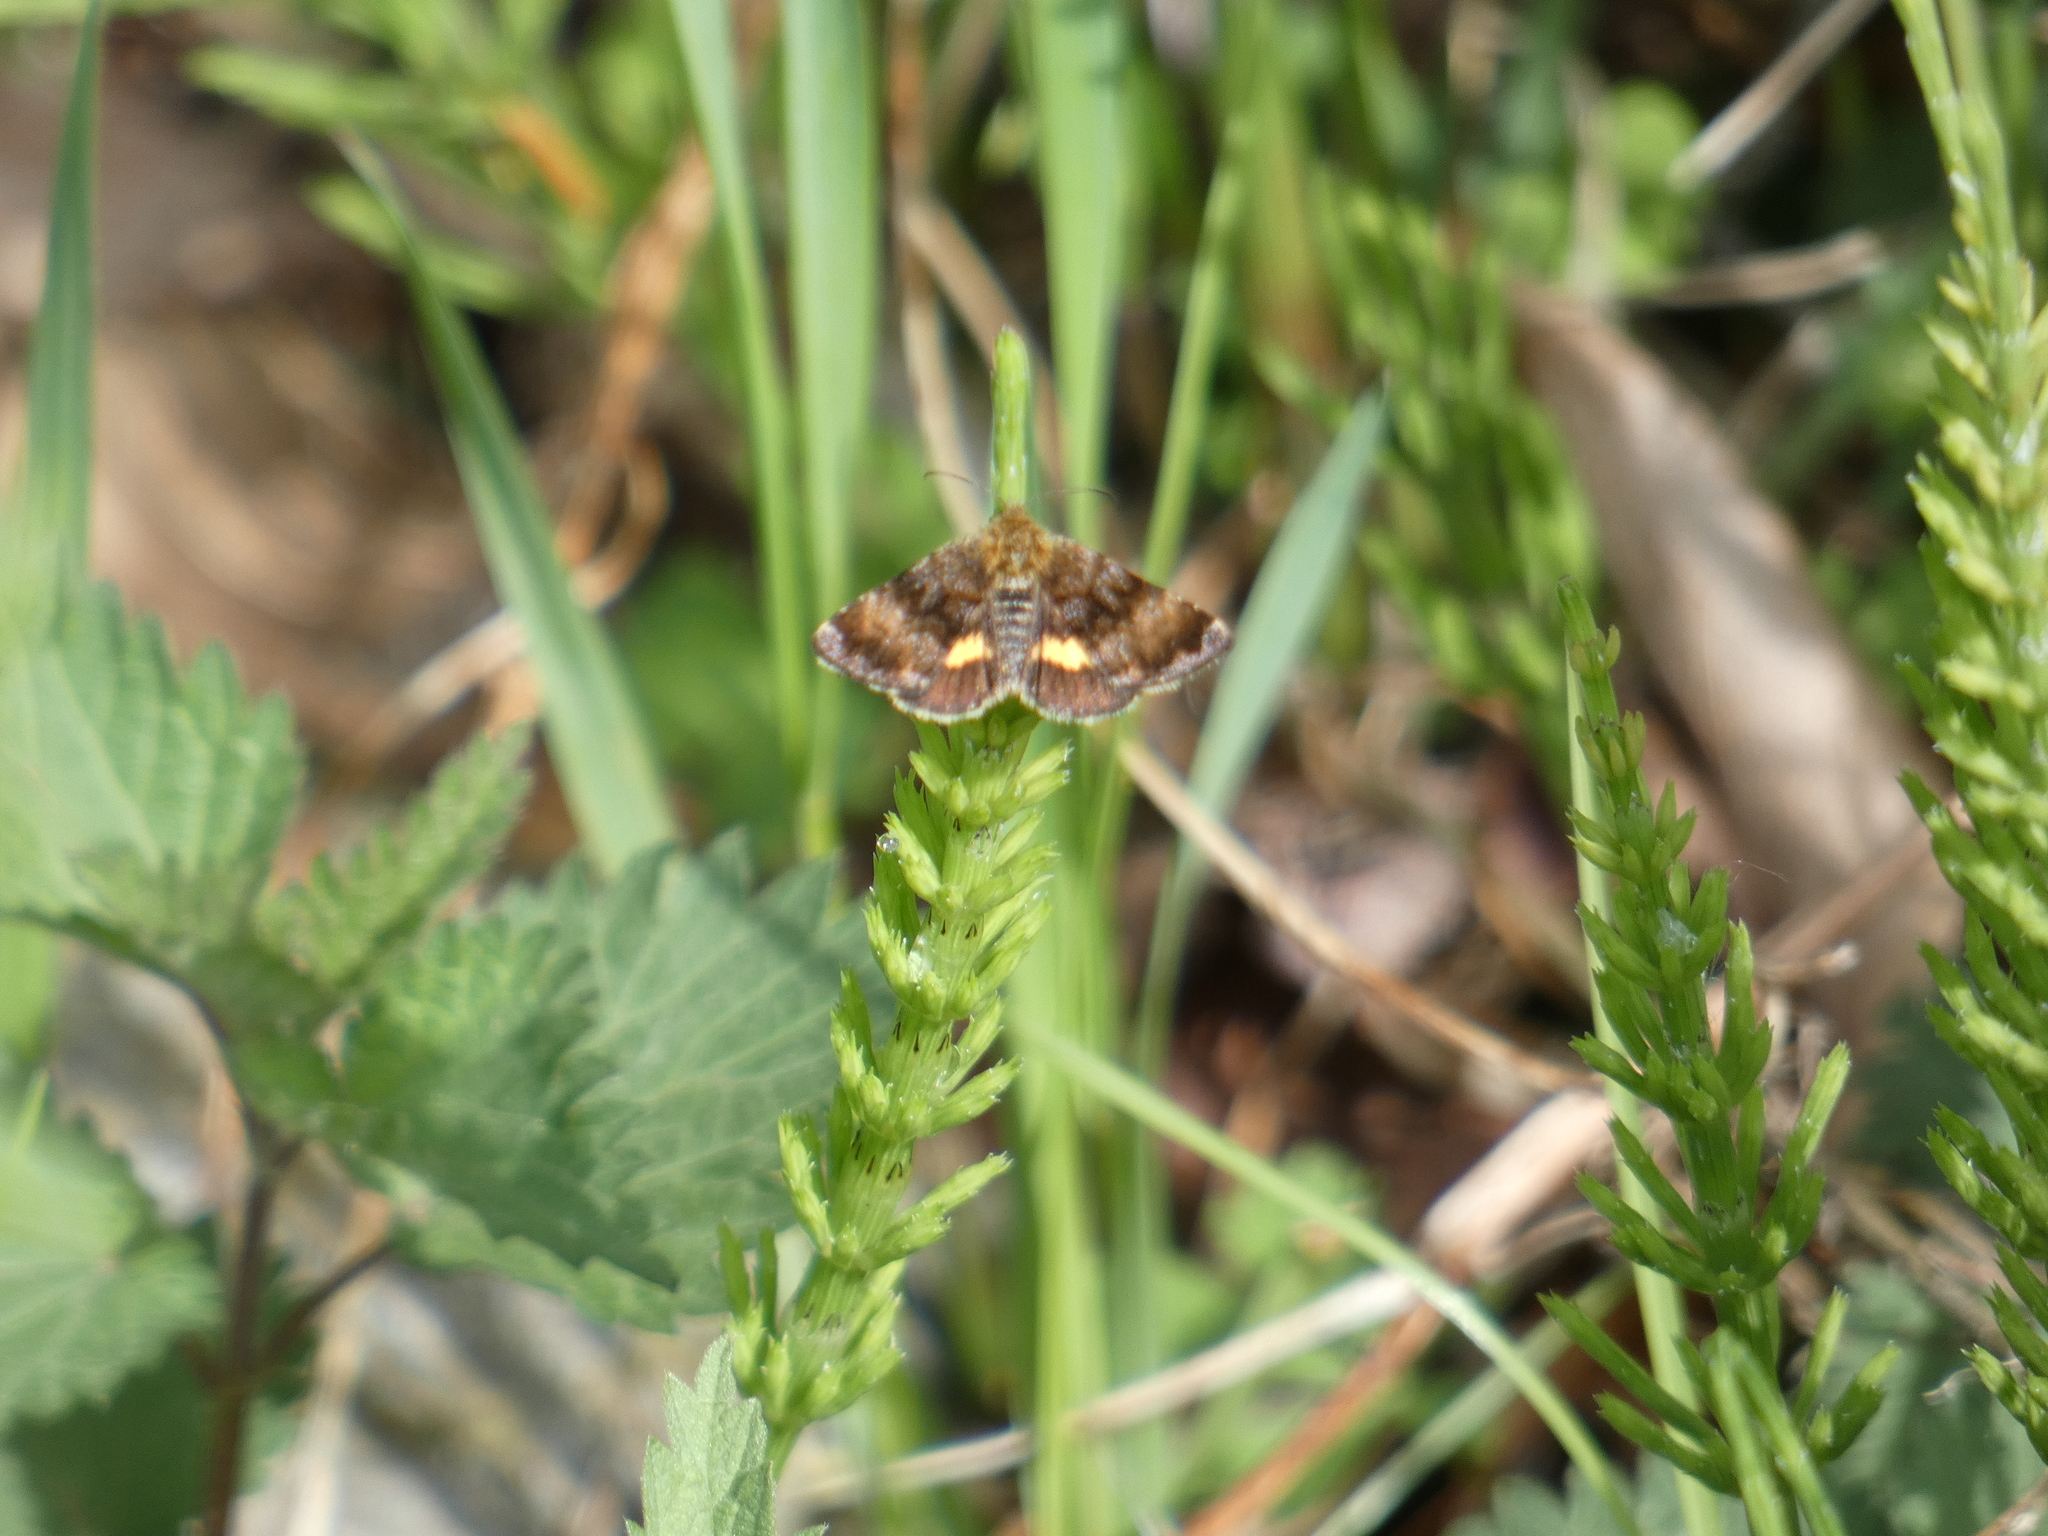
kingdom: Animalia
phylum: Arthropoda
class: Insecta
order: Lepidoptera
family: Noctuidae
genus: Panemeria
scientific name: Panemeria tenebrata
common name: Small yellow underwing
